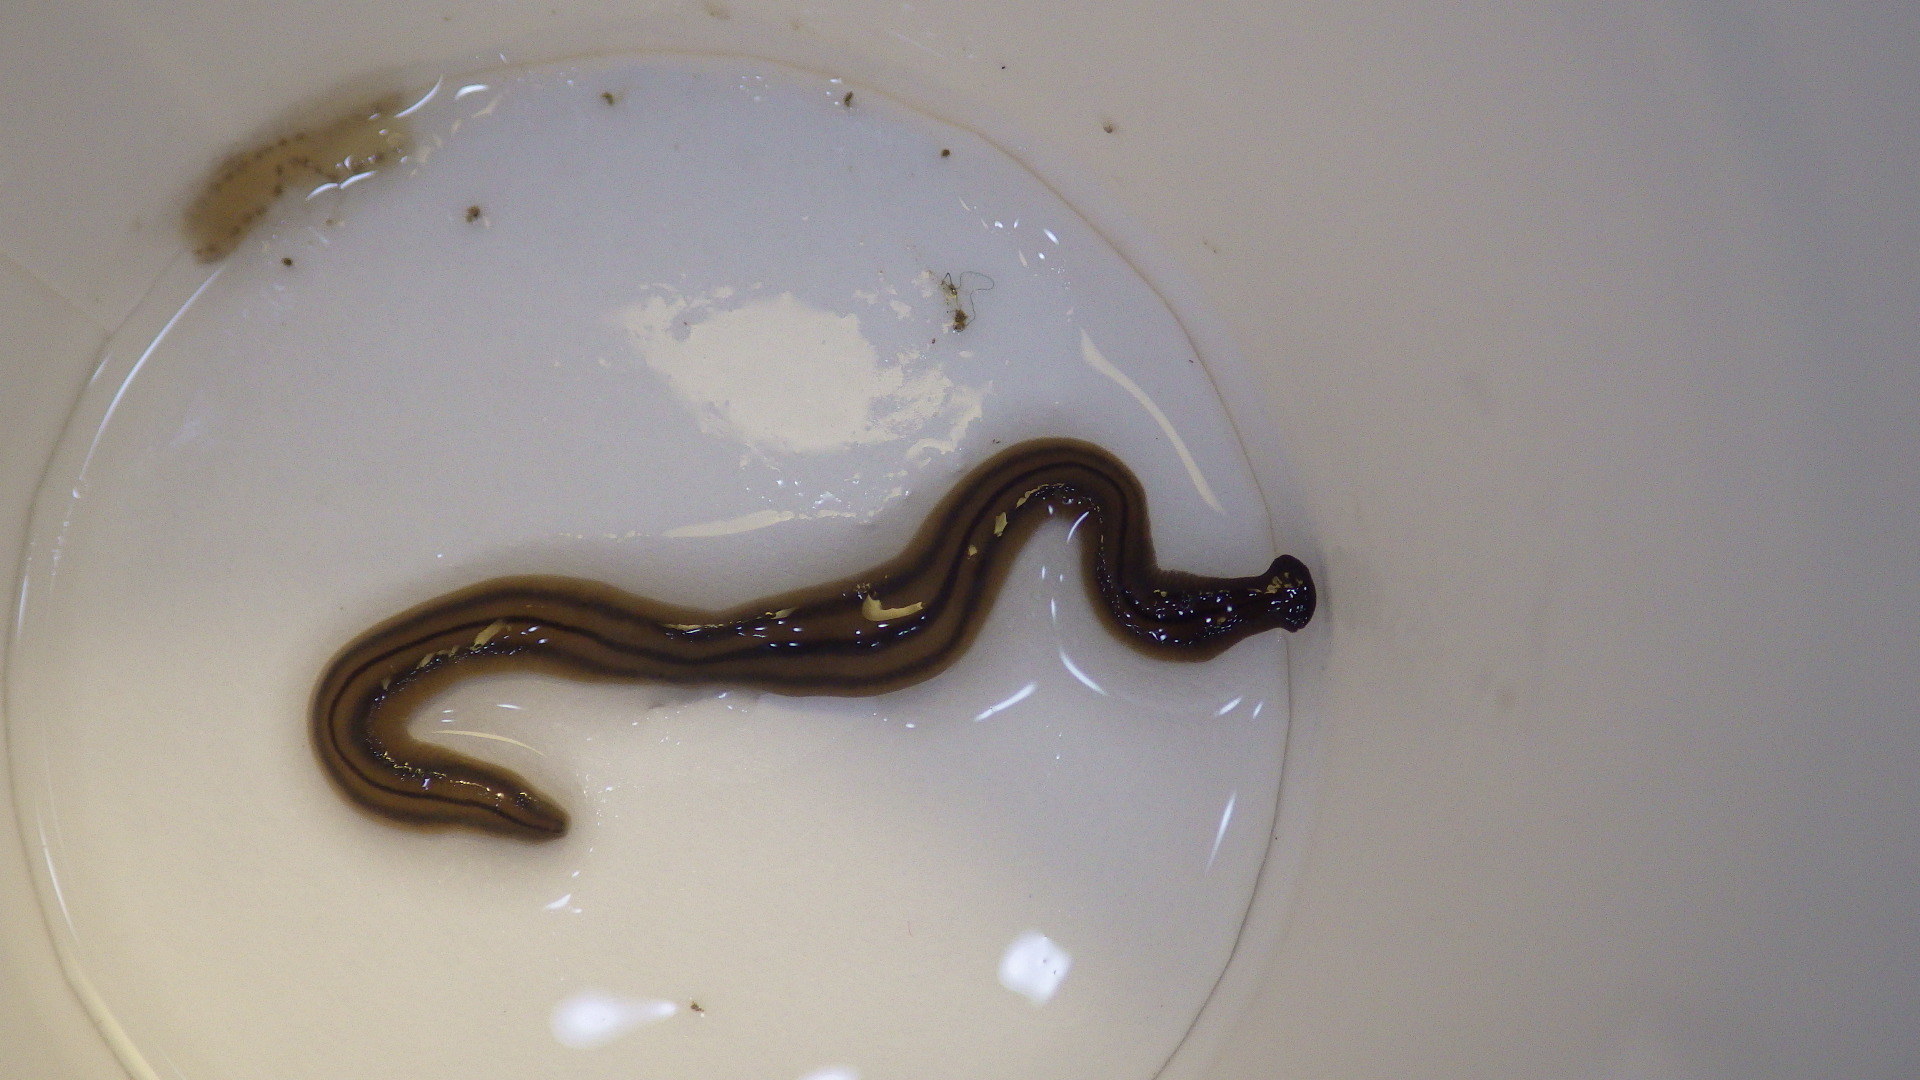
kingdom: Animalia
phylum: Platyhelminthes
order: Tricladida
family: Geoplanidae
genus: Bipalium
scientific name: Bipalium pennsylvanicum
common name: Three-lined land planarian
